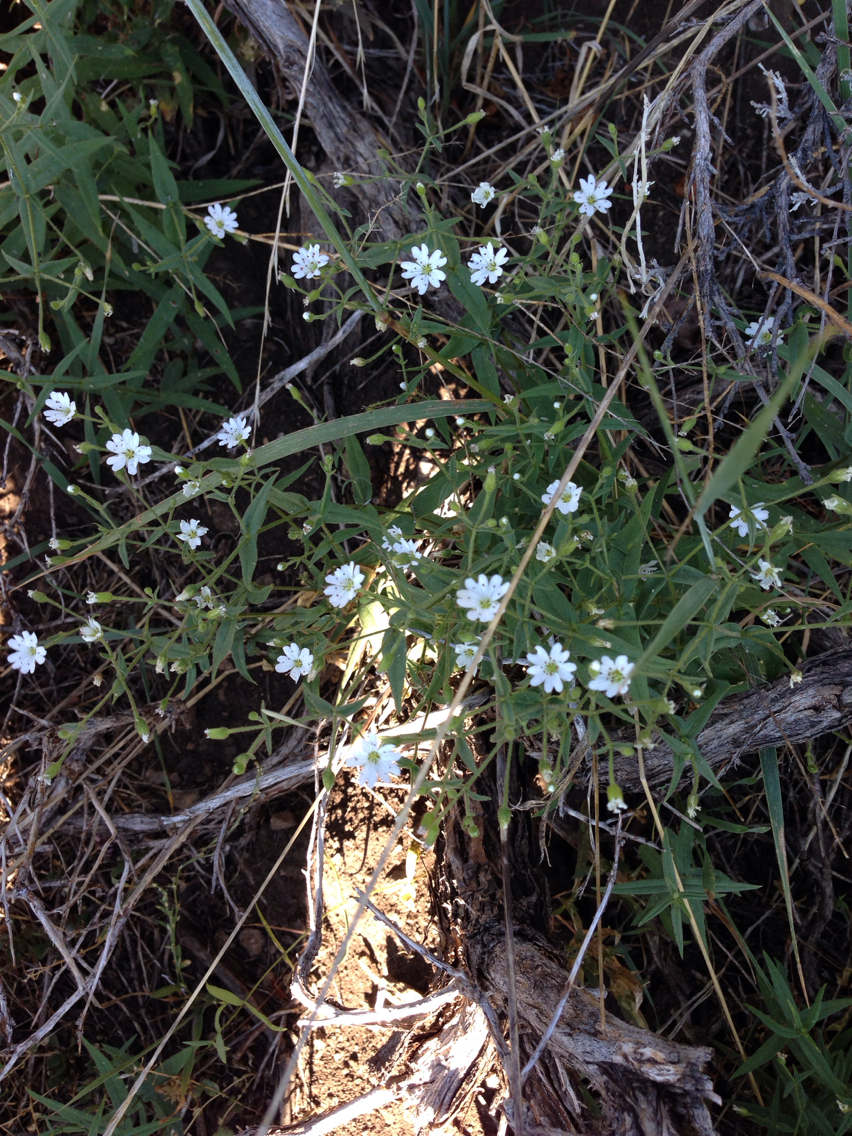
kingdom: Plantae
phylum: Tracheophyta
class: Magnoliopsida
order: Caryophyllales
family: Caryophyllaceae
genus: Schizotechium
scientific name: Schizotechium jamesianum
